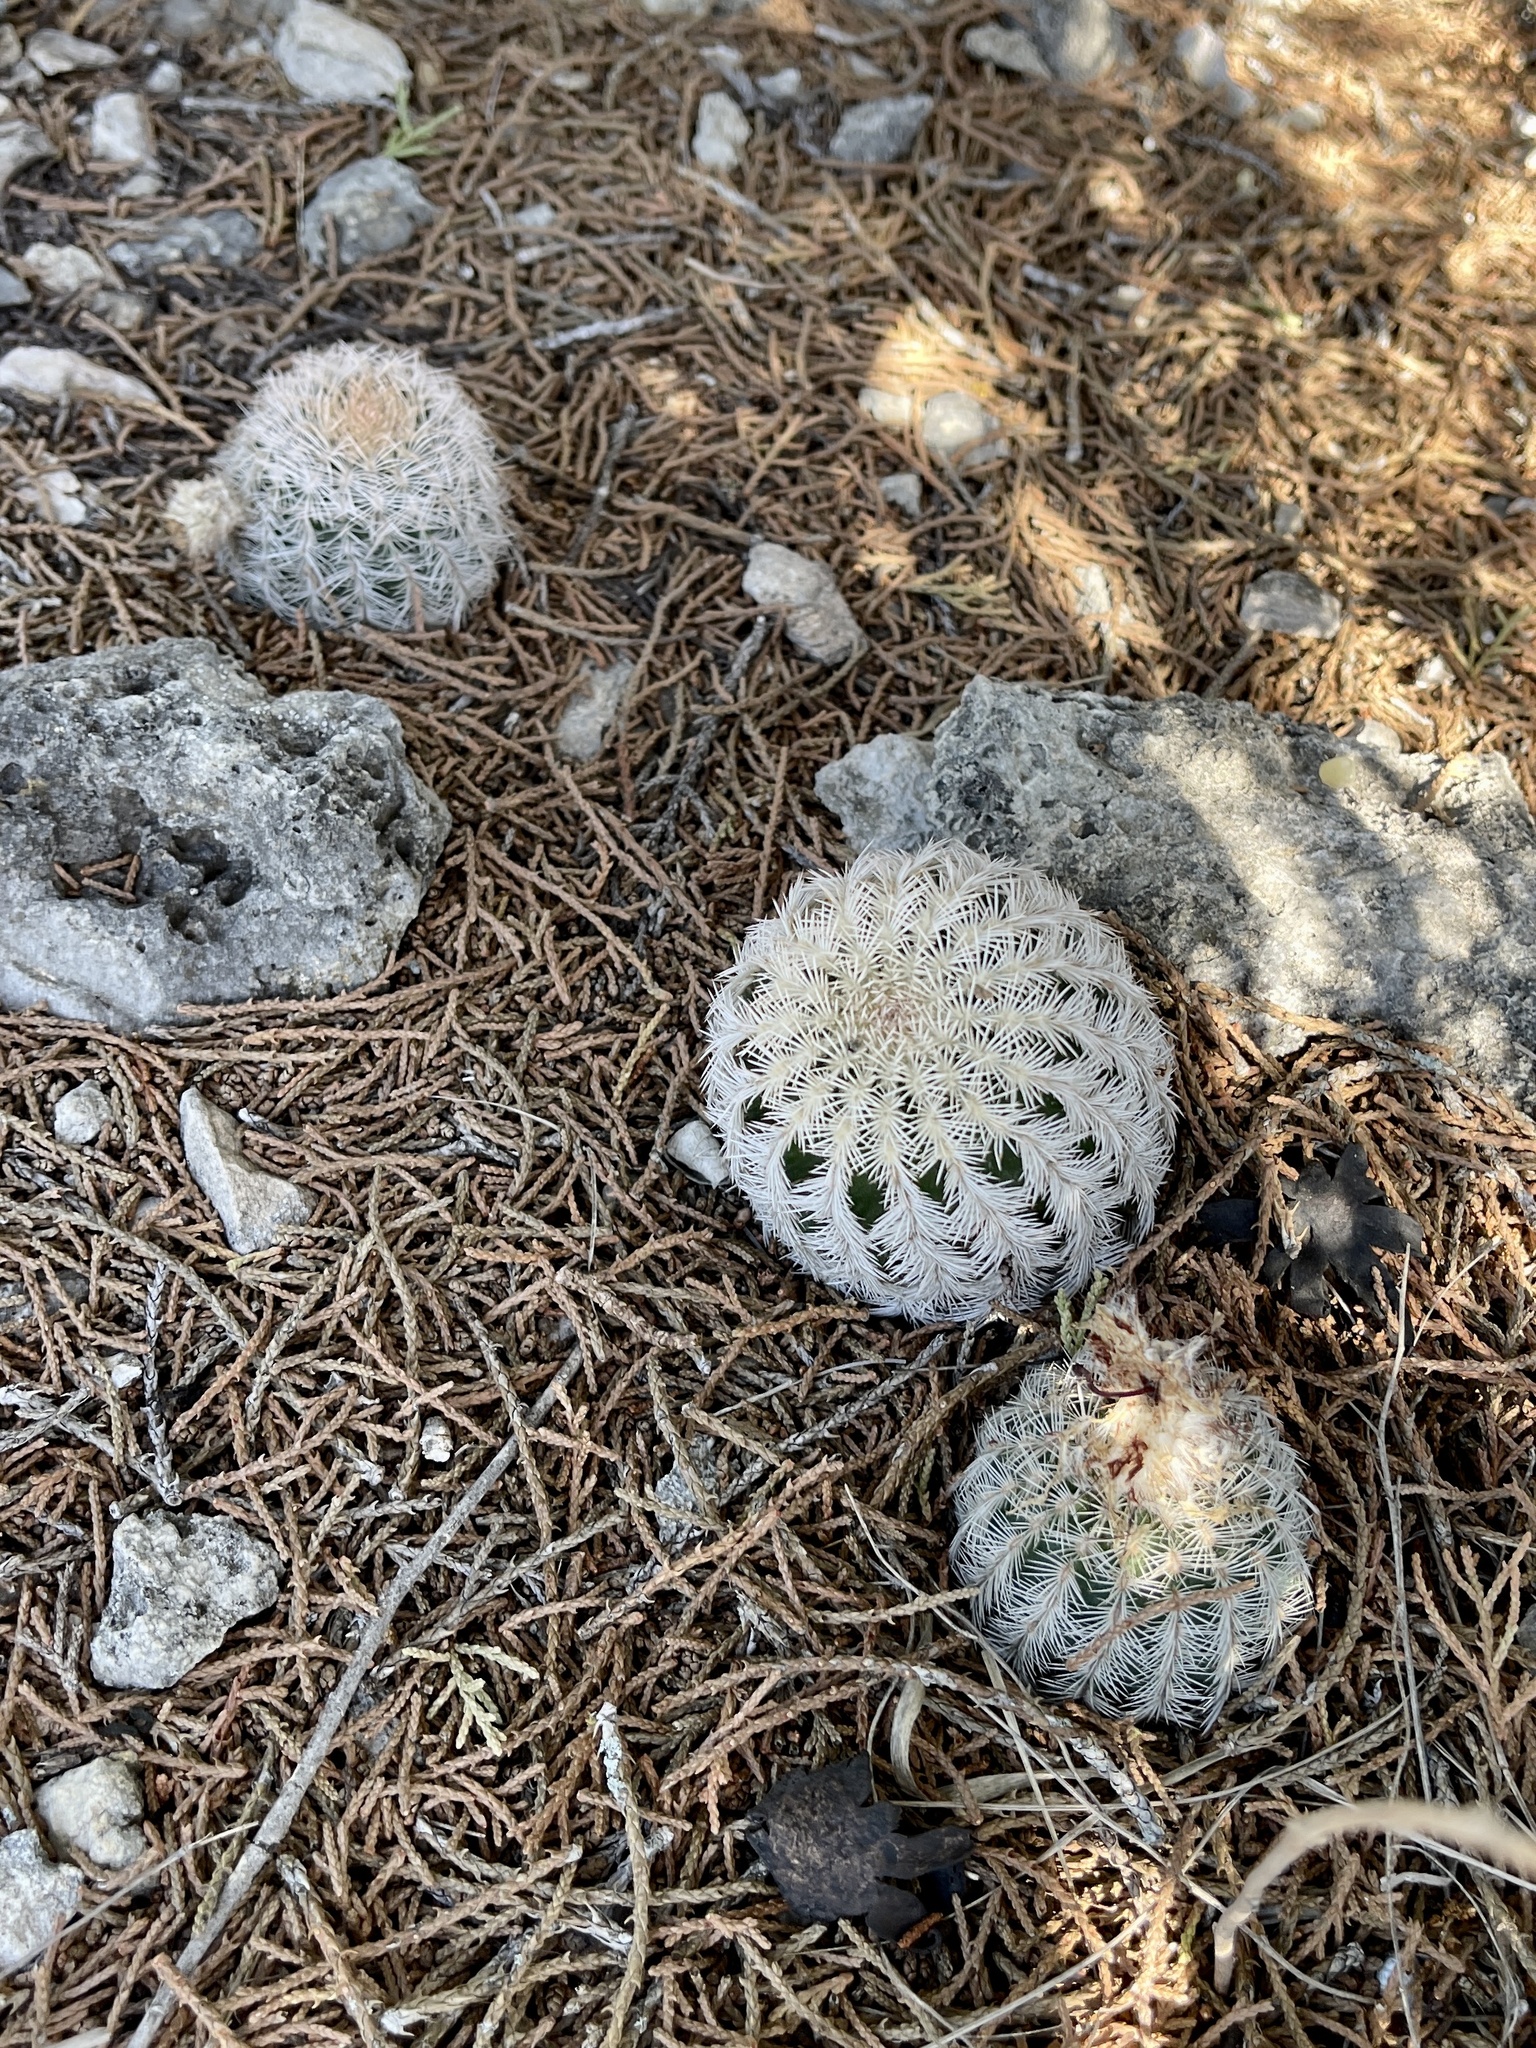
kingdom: Plantae
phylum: Tracheophyta
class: Magnoliopsida
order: Caryophyllales
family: Cactaceae
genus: Echinocereus
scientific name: Echinocereus reichenbachii
